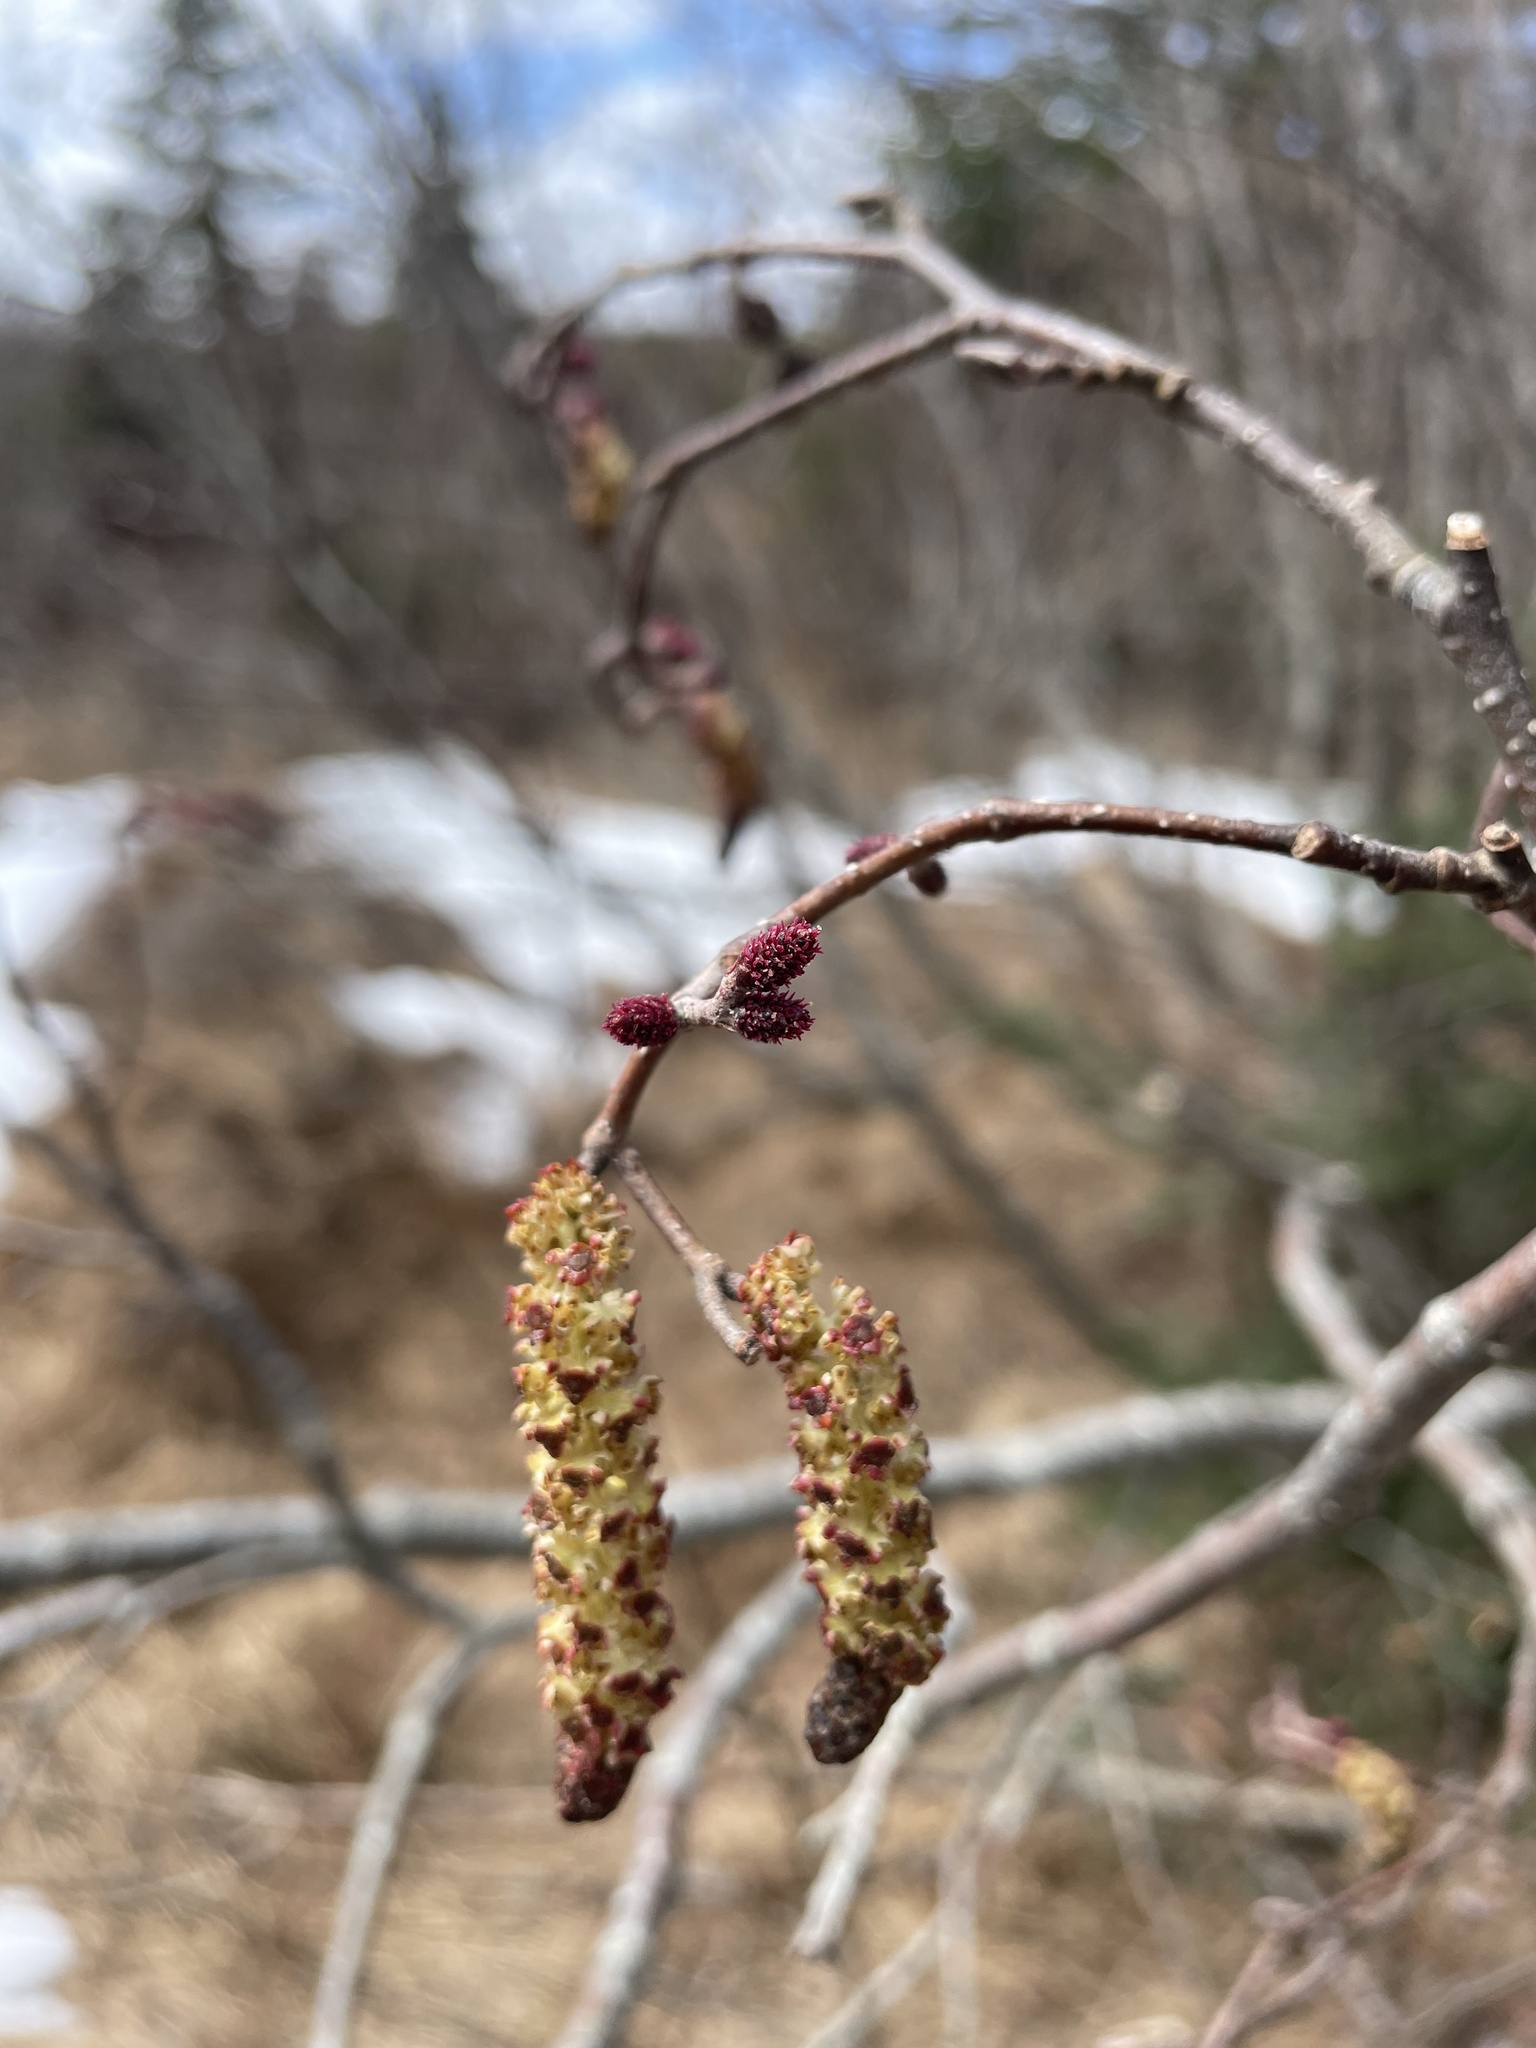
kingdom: Plantae
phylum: Tracheophyta
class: Magnoliopsida
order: Fagales
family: Betulaceae
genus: Alnus
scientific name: Alnus incana
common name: Grey alder
